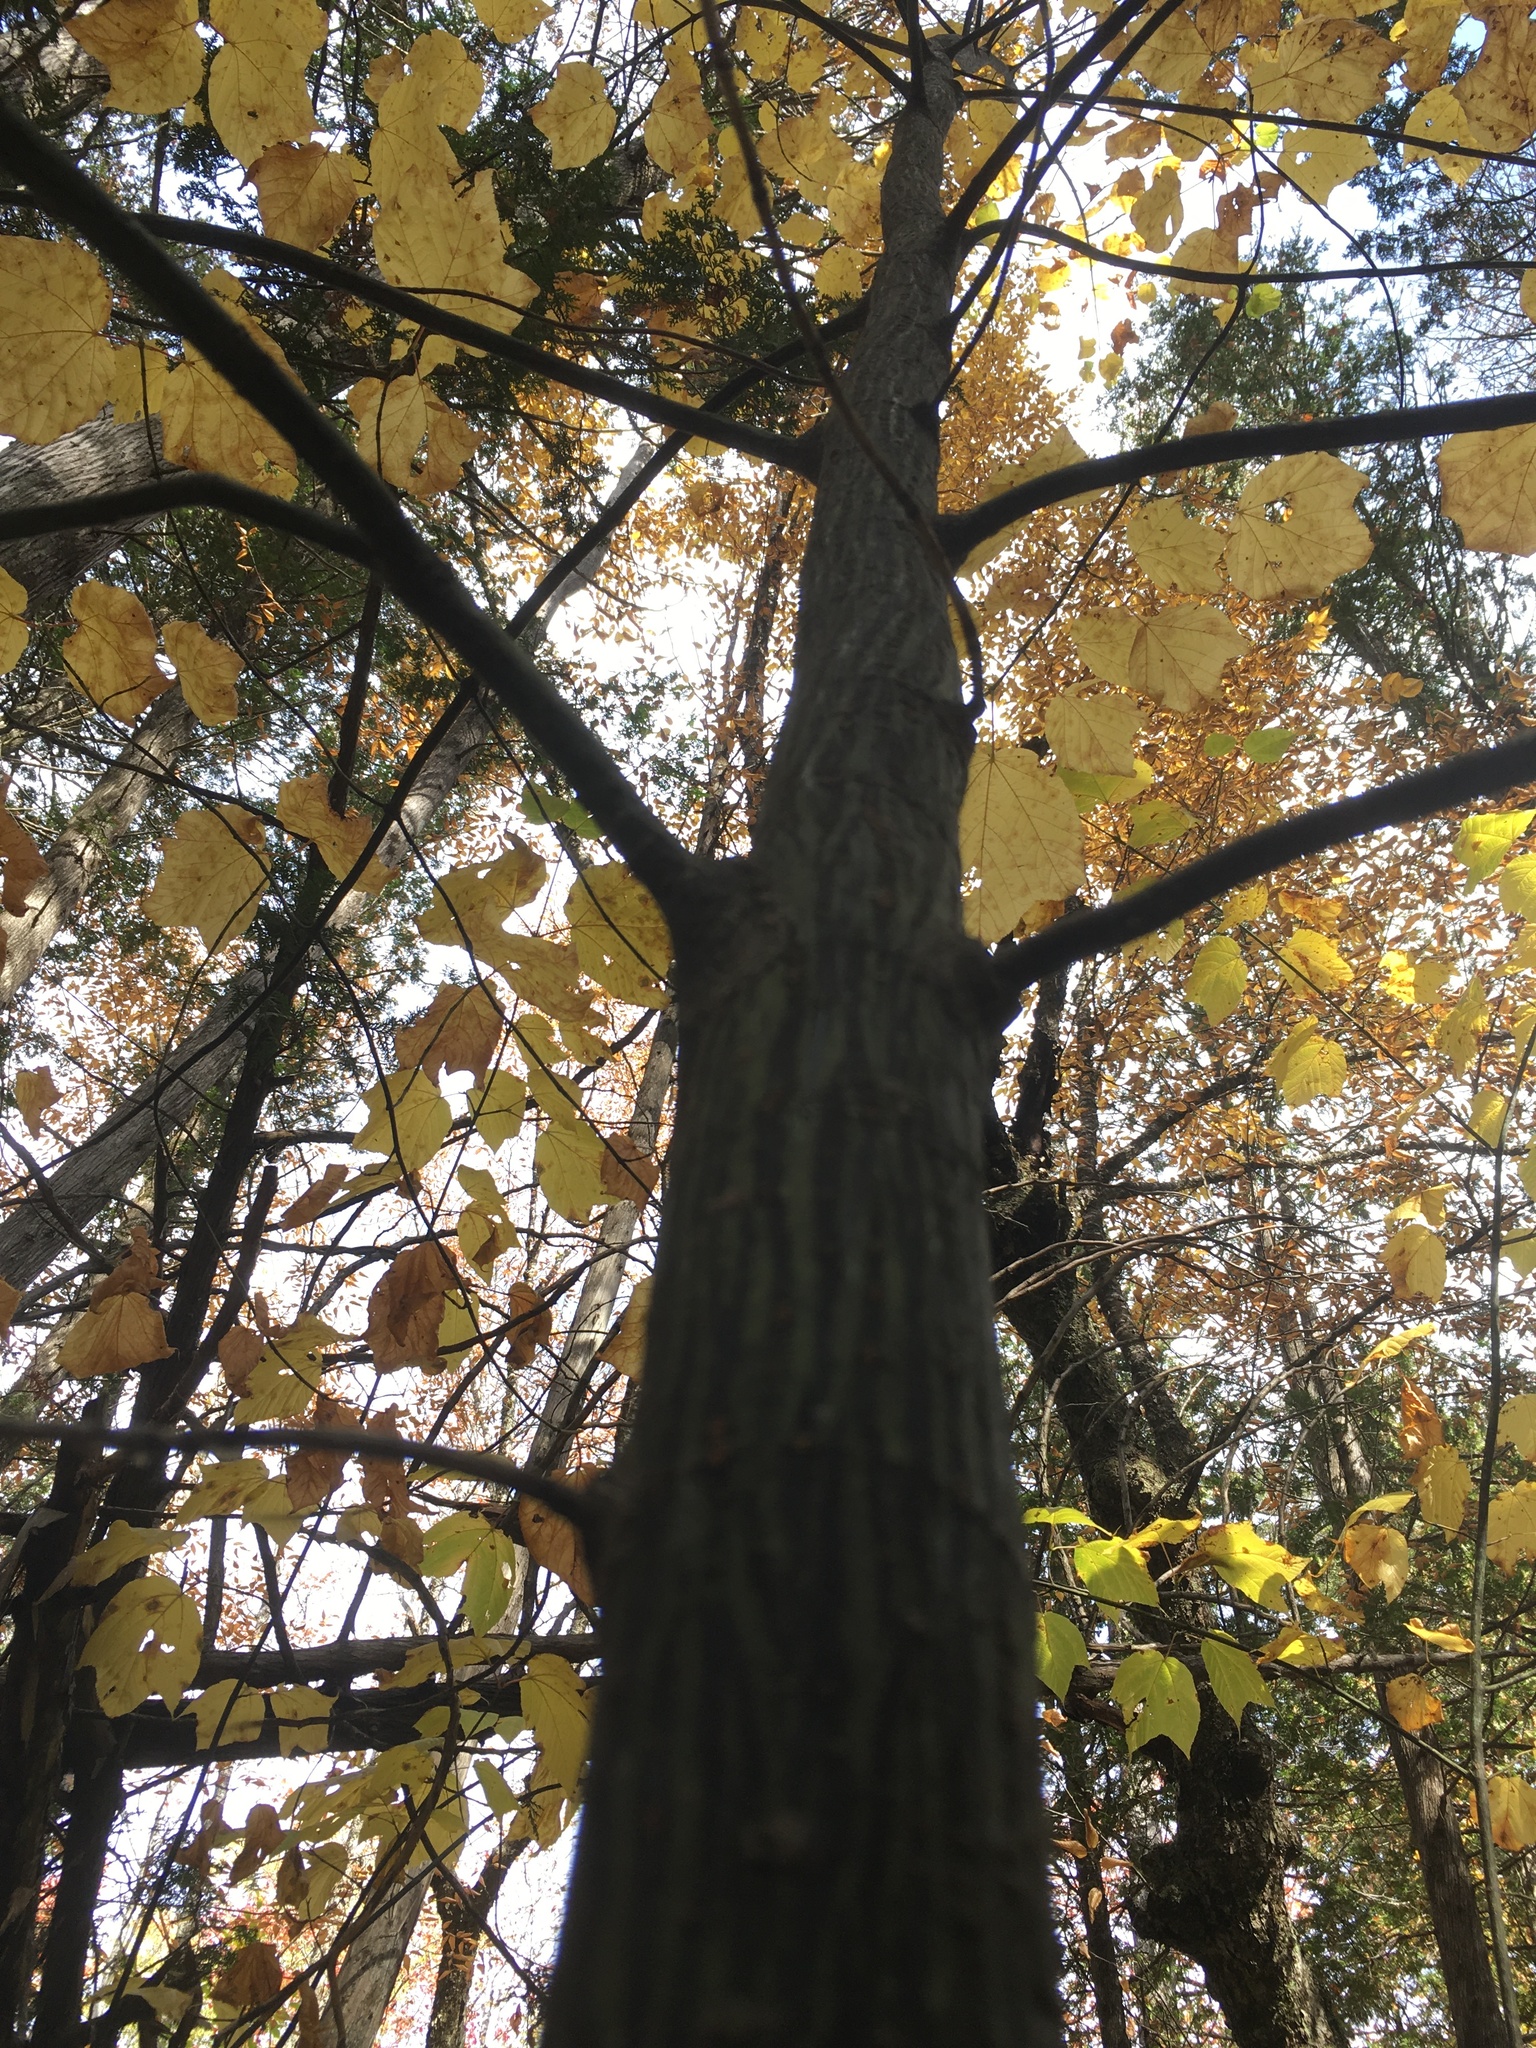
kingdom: Plantae
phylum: Tracheophyta
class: Magnoliopsida
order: Sapindales
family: Sapindaceae
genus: Acer
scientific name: Acer pensylvanicum
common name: Moosewood
